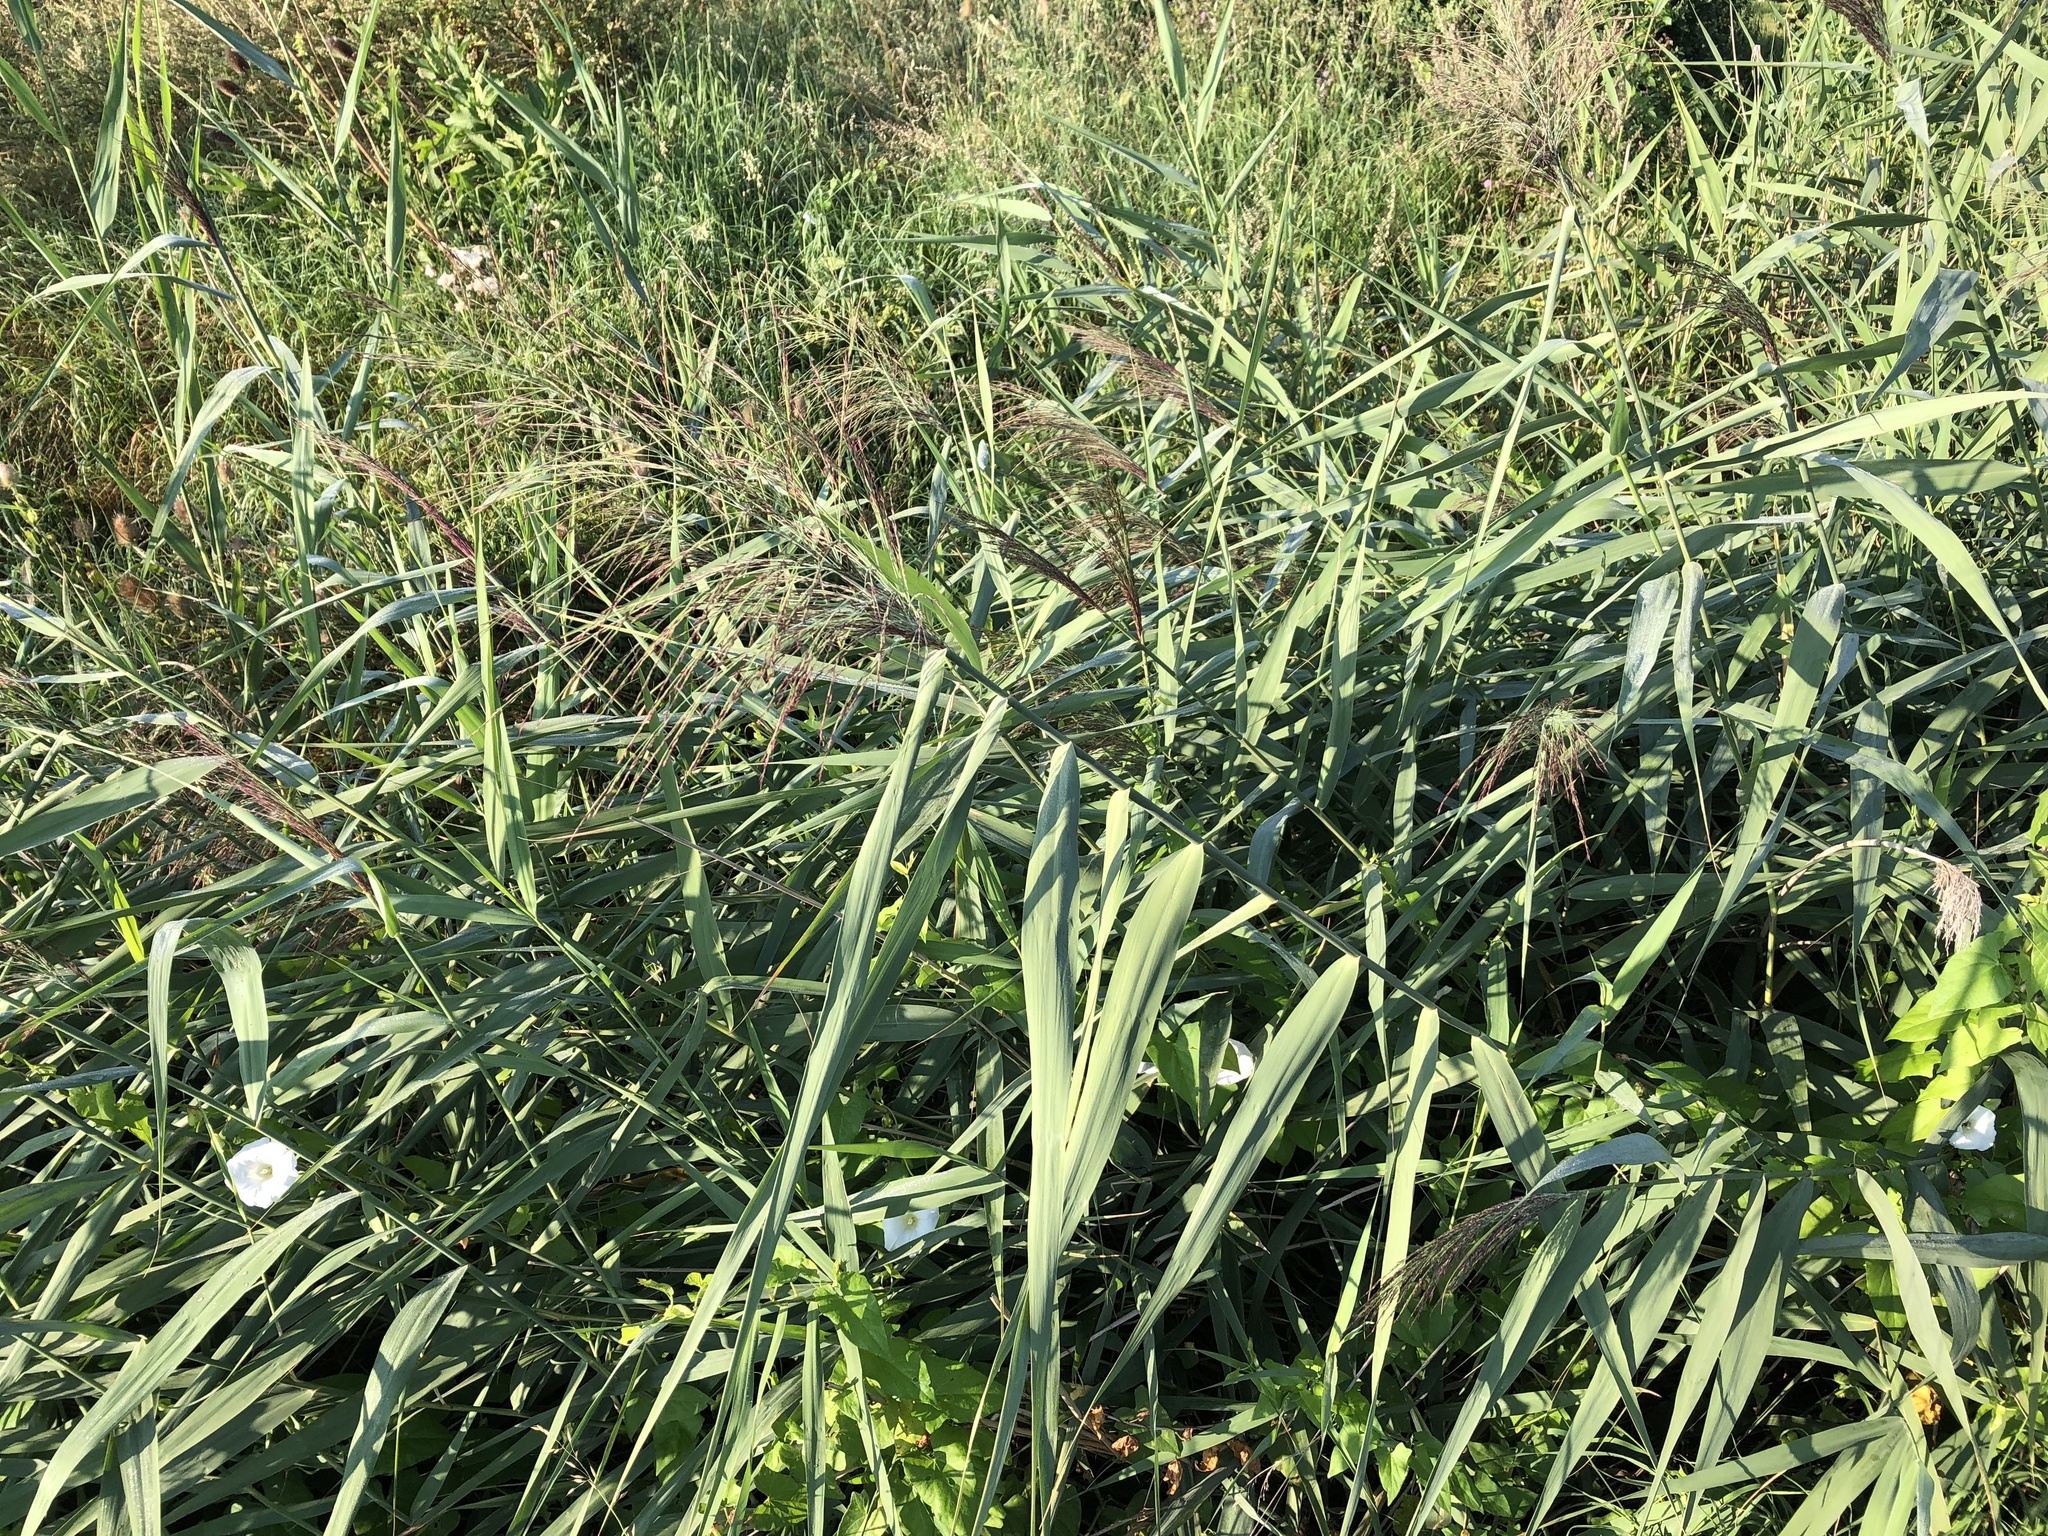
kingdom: Plantae
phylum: Tracheophyta
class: Liliopsida
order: Poales
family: Poaceae
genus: Phragmites
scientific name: Phragmites australis
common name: Common reed
